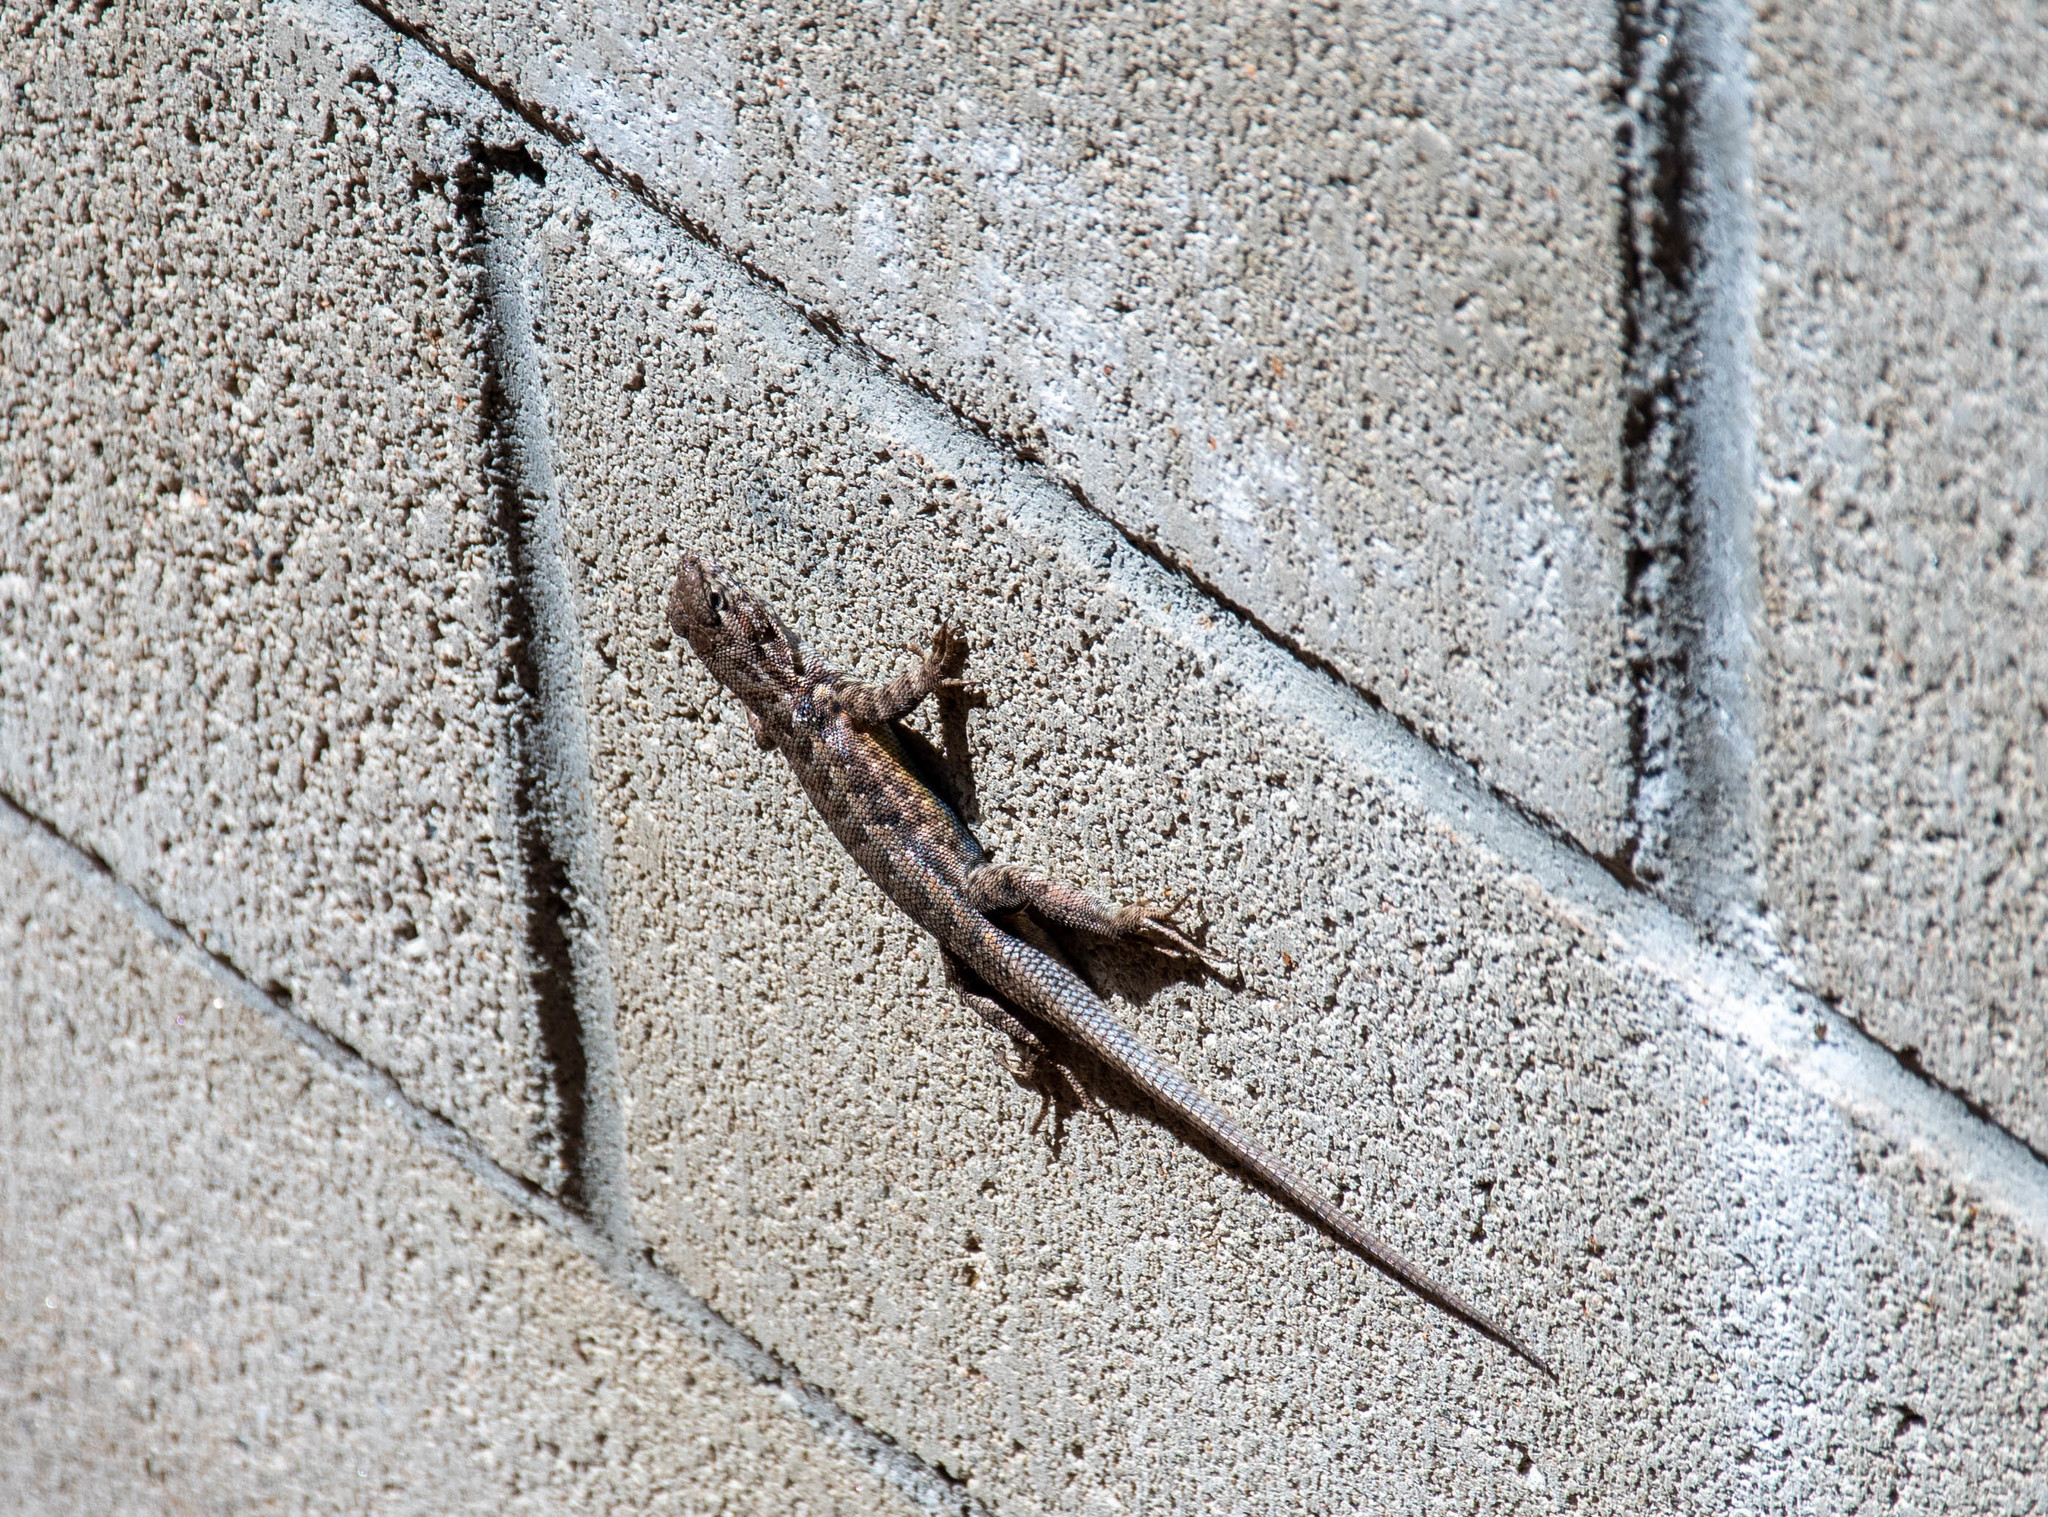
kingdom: Animalia
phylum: Chordata
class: Squamata
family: Phrynosomatidae
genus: Sceloporus
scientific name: Sceloporus graciosus
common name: Sagebrush lizard
